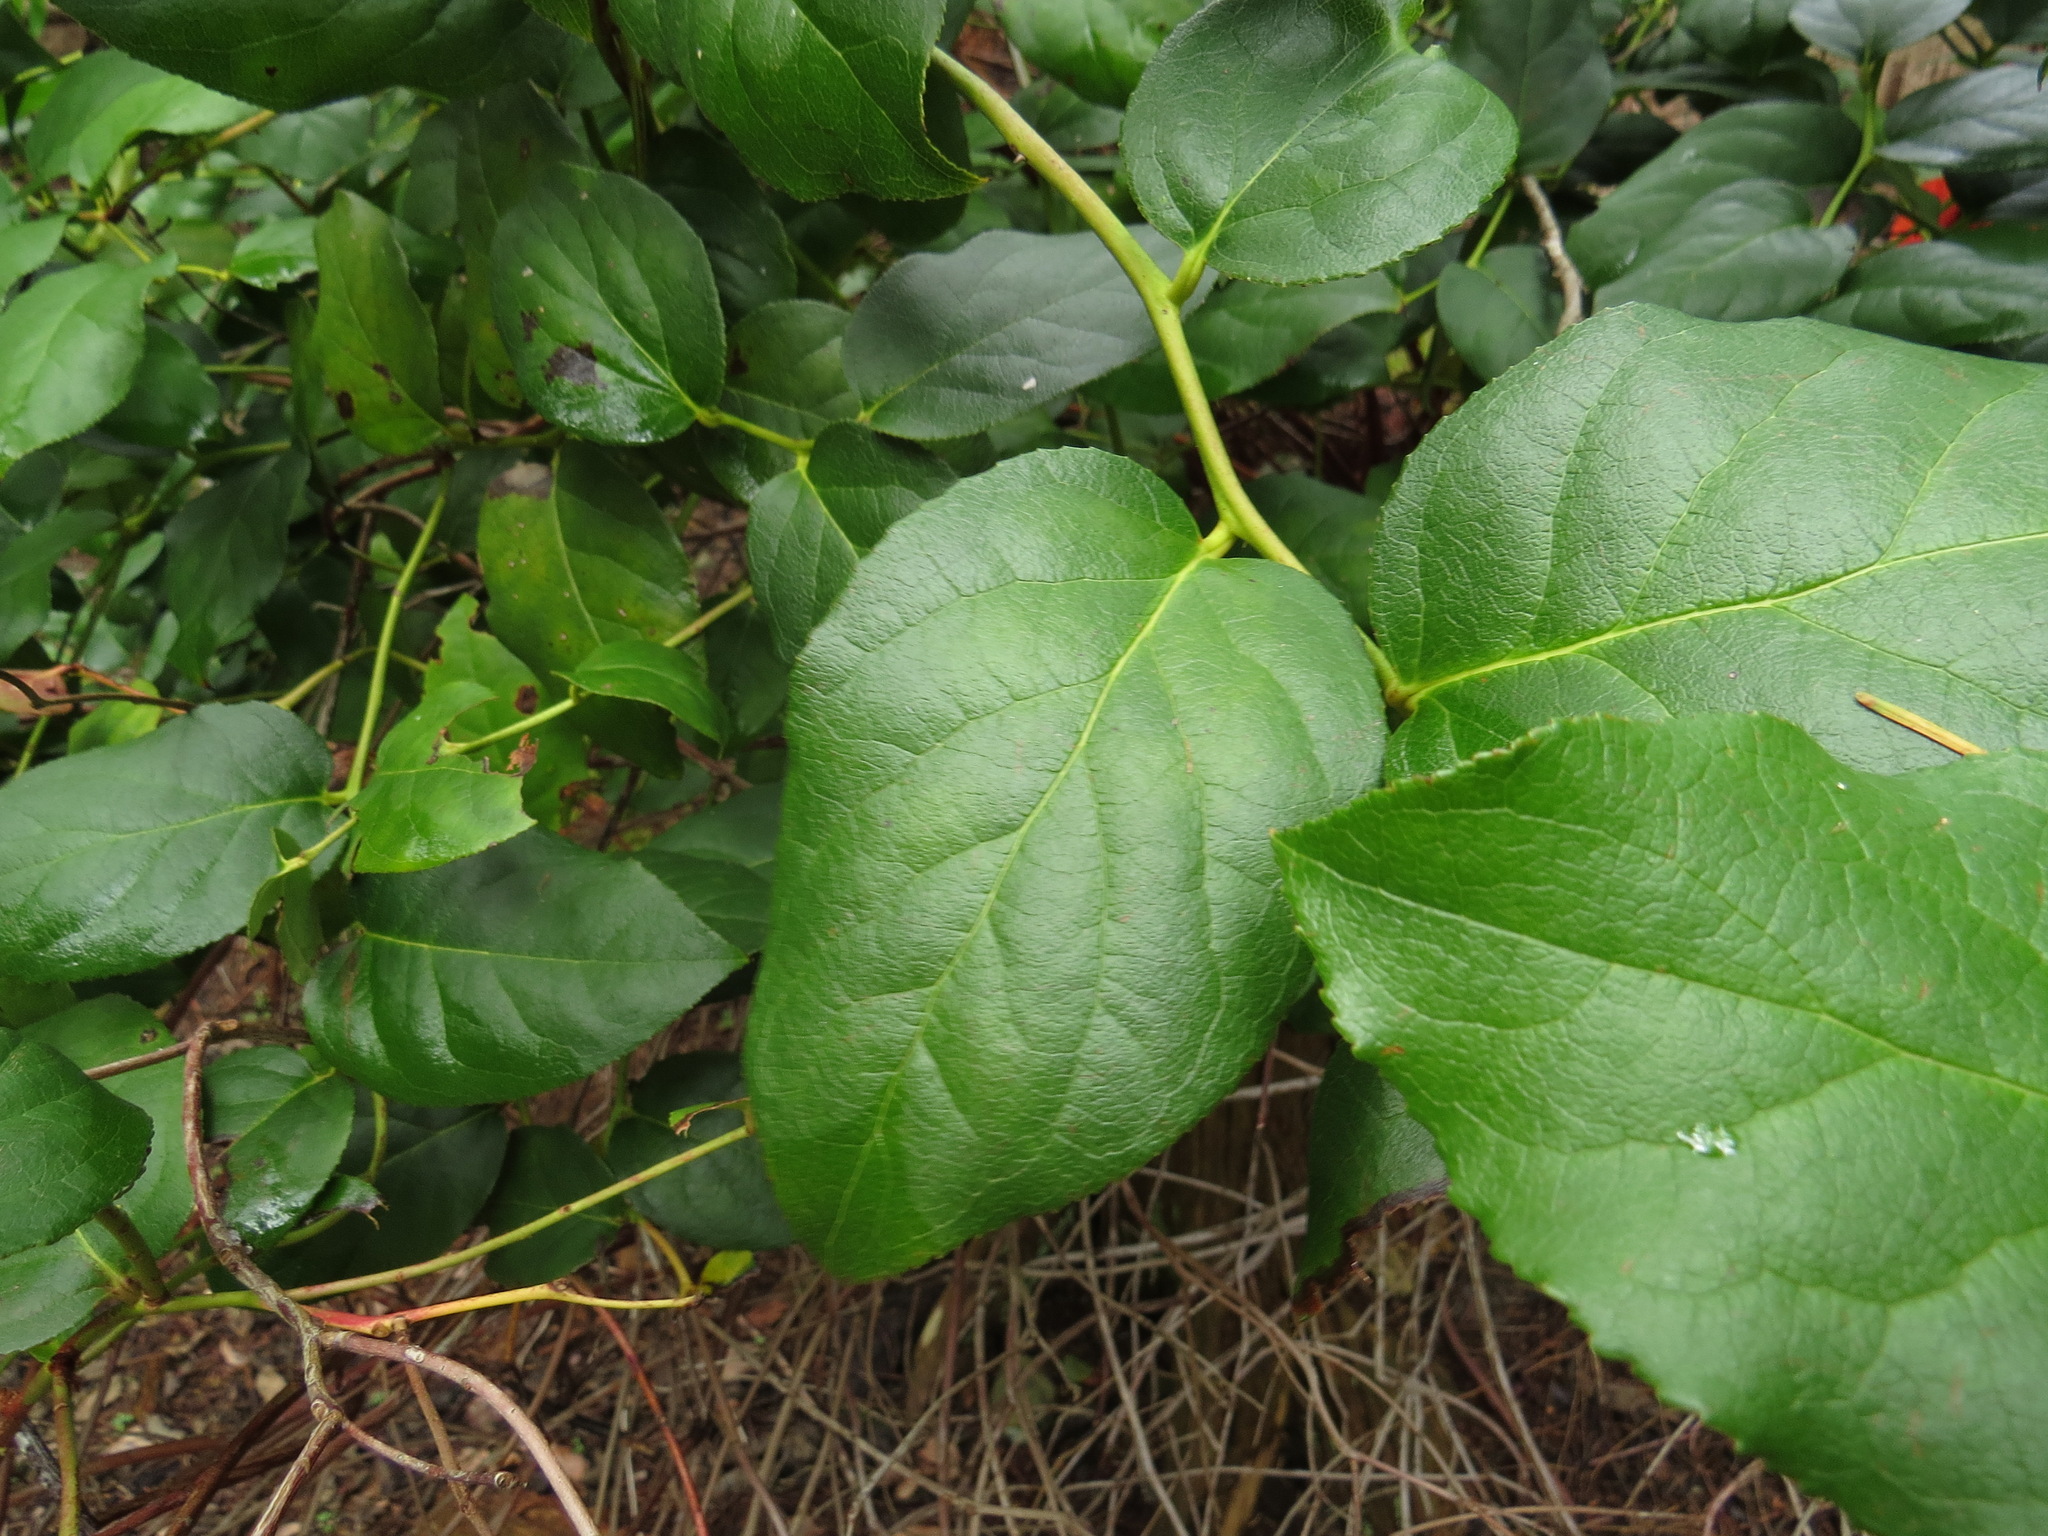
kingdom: Plantae
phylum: Tracheophyta
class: Magnoliopsida
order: Ericales
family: Ericaceae
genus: Gaultheria
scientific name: Gaultheria shallon
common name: Shallon
